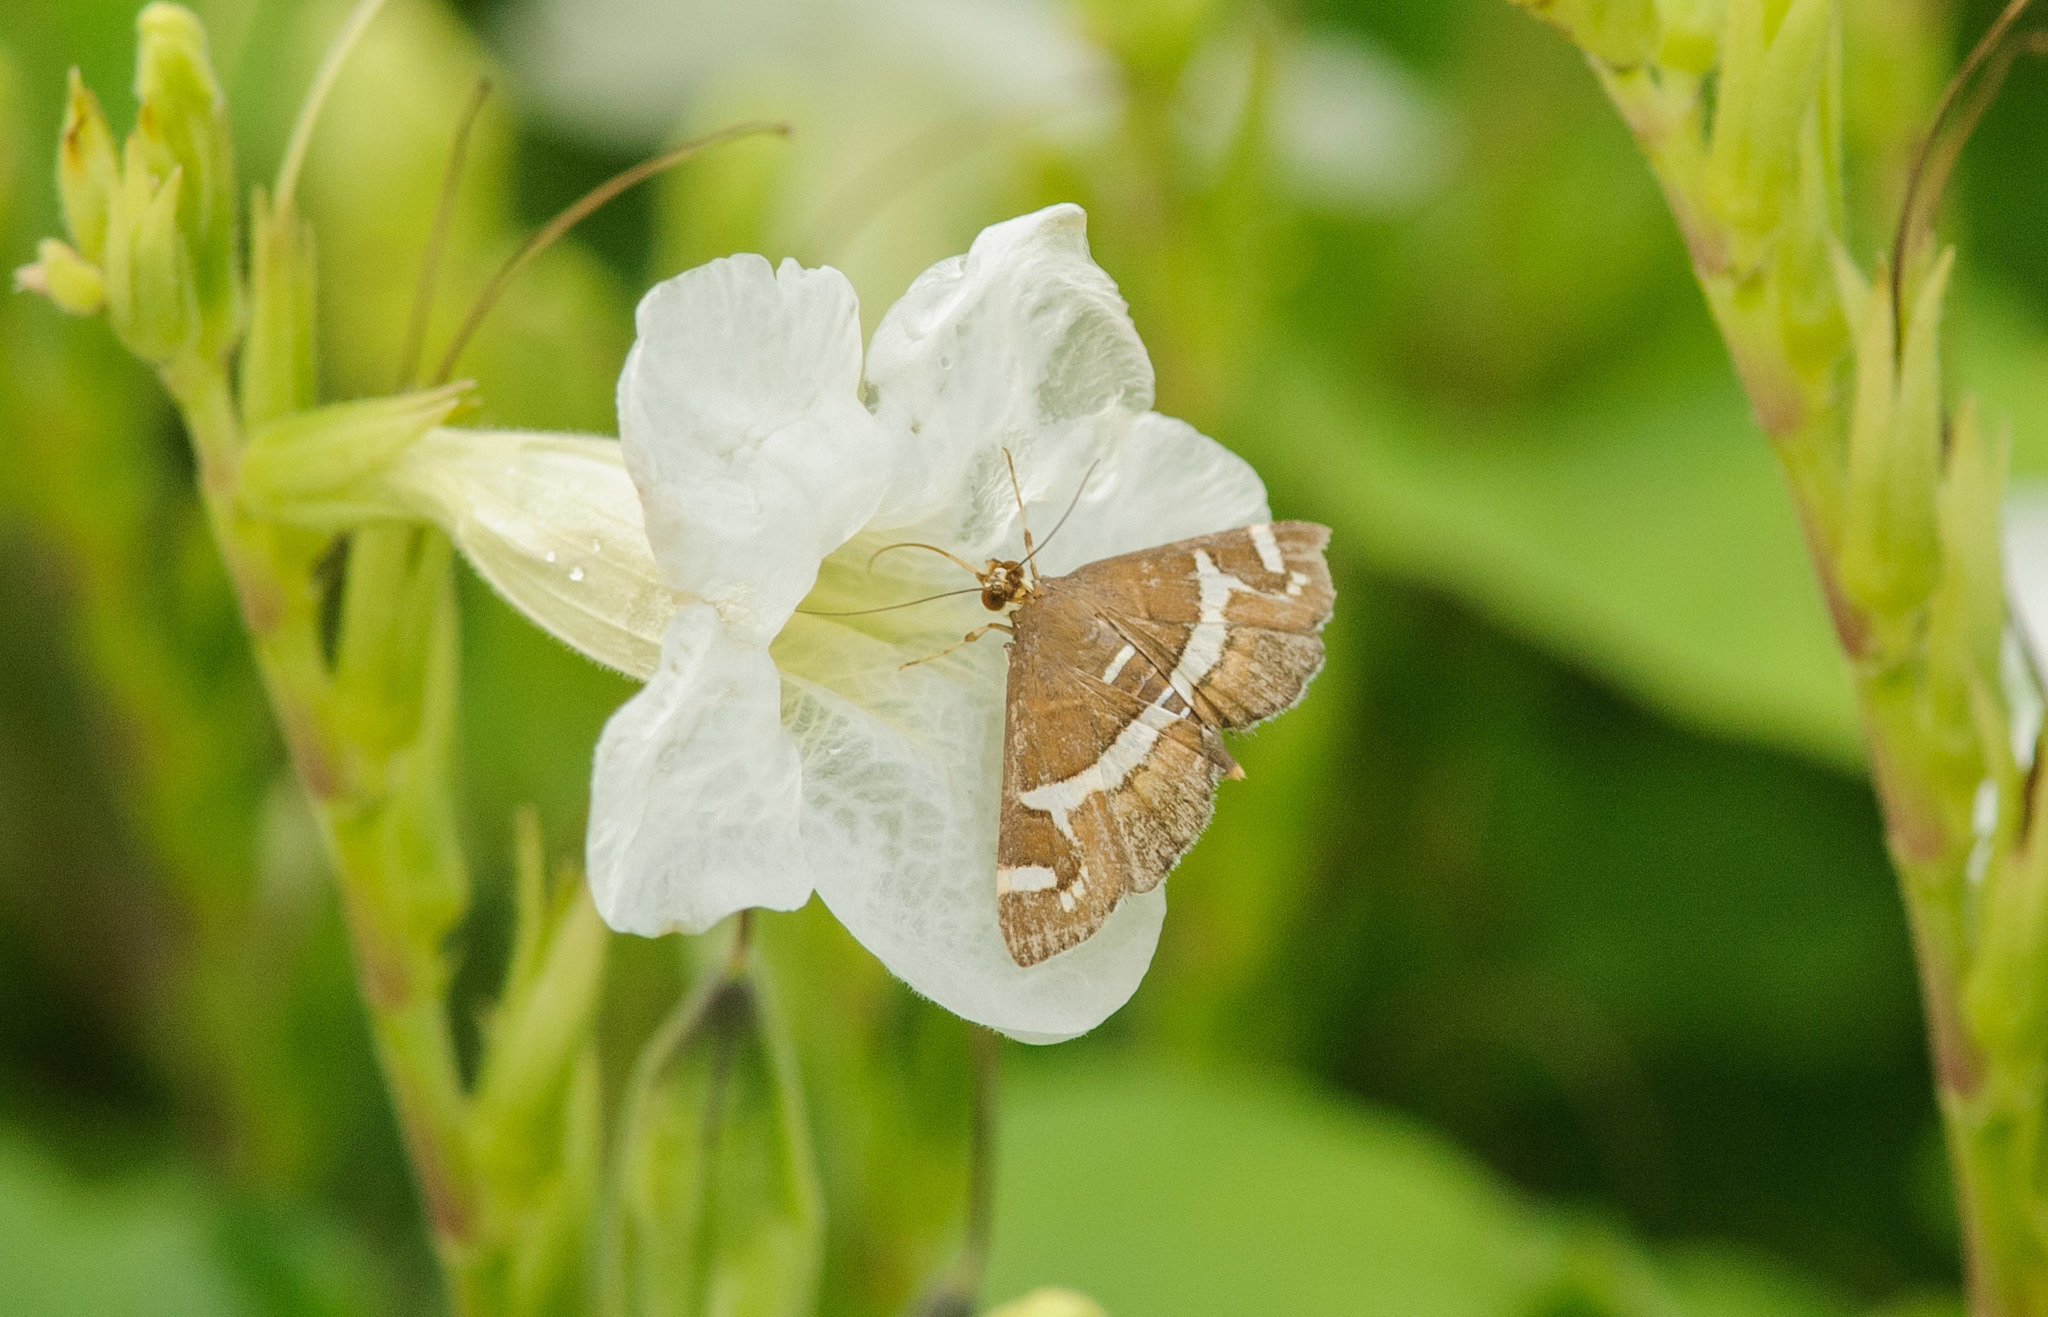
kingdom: Animalia
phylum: Arthropoda
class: Insecta
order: Lepidoptera
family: Crambidae
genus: Spoladea
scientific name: Spoladea recurvalis
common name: Beet webworm moth
